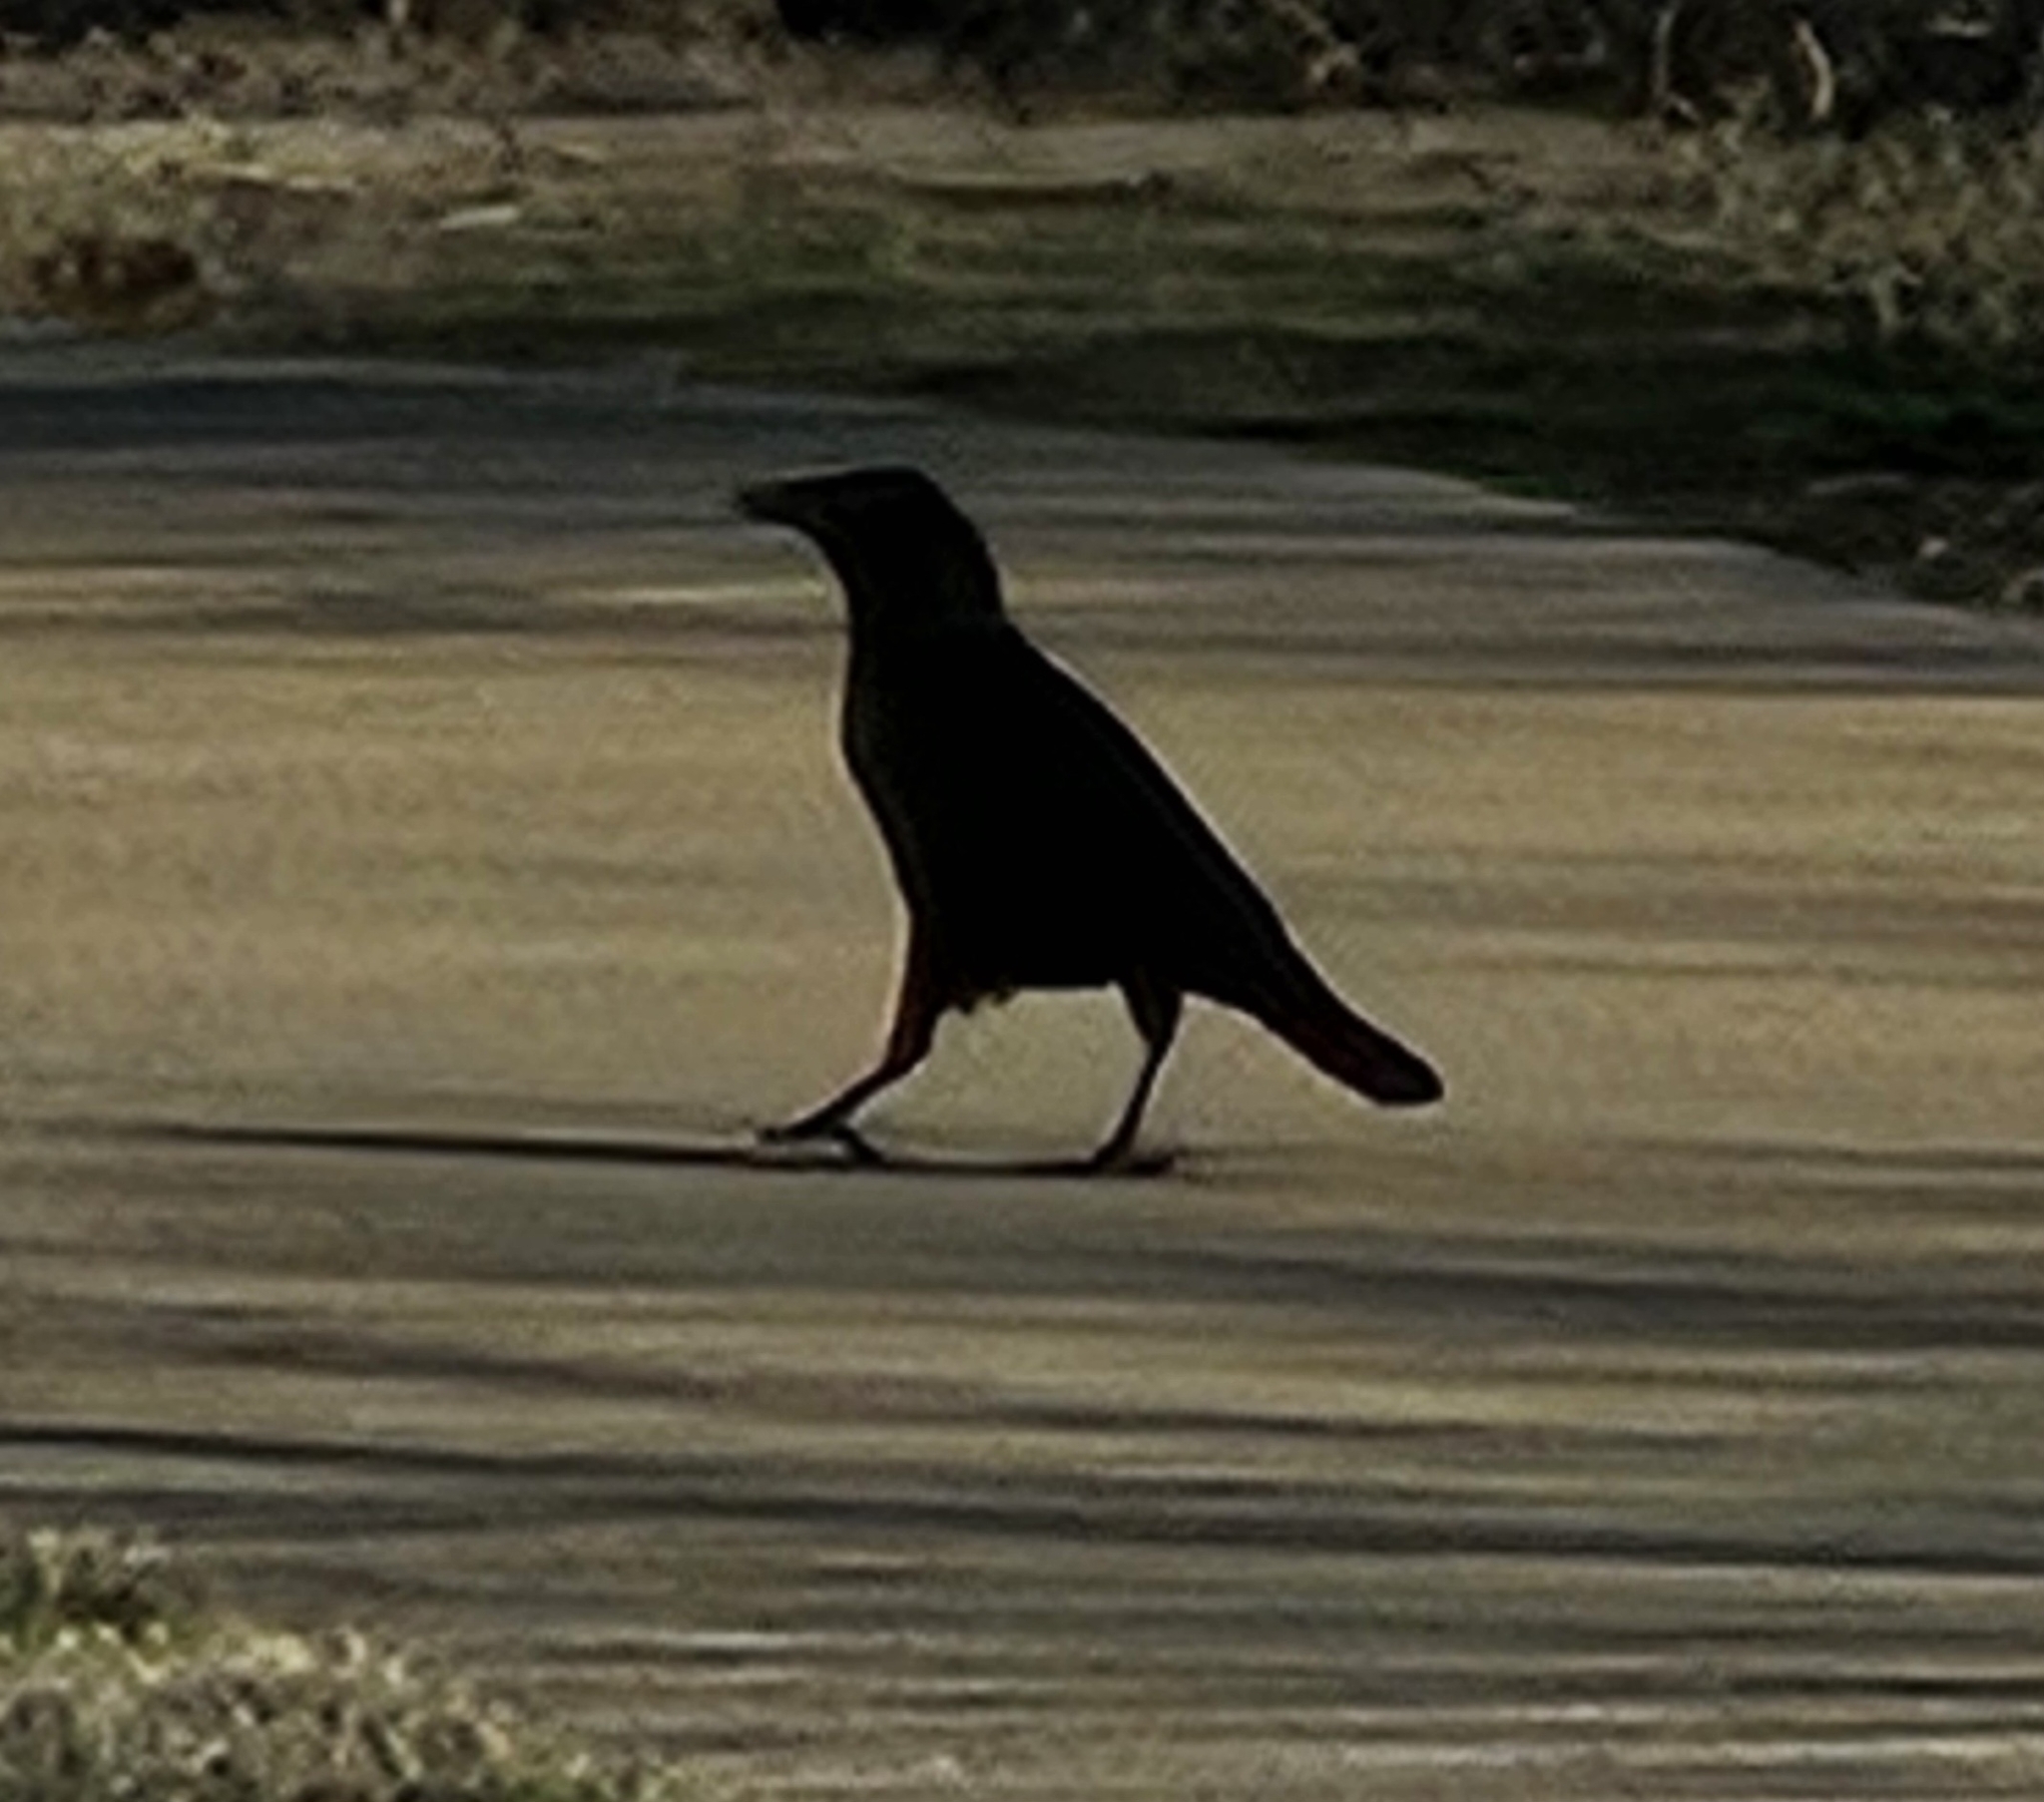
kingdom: Animalia
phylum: Chordata
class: Aves
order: Passeriformes
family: Corvidae
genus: Corvus
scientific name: Corvus brachyrhynchos
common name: American crow
